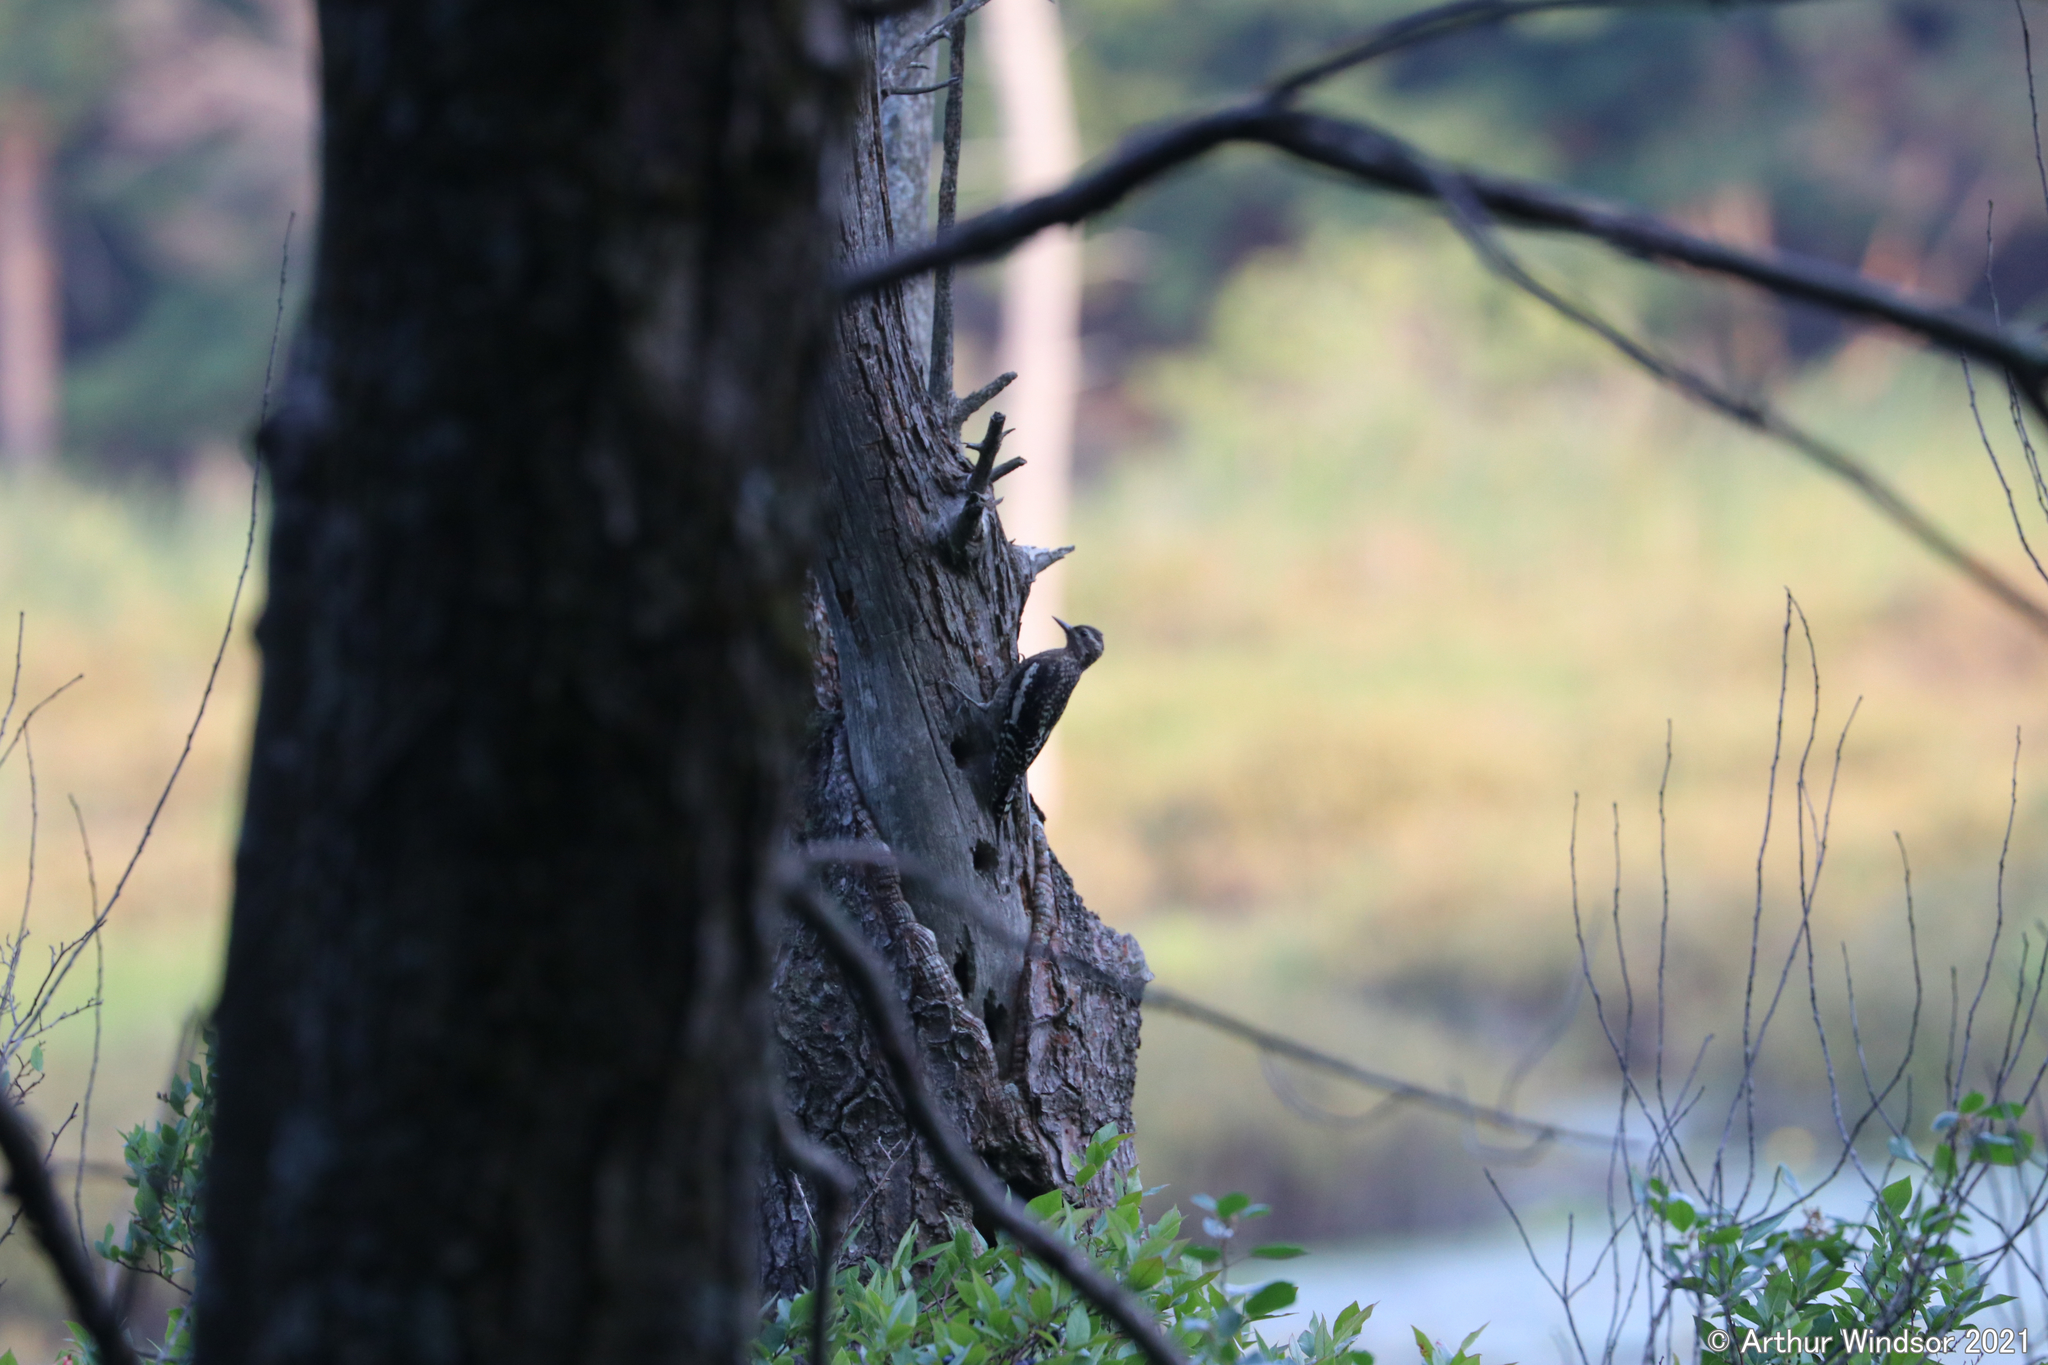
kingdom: Animalia
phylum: Chordata
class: Aves
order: Piciformes
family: Picidae
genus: Sphyrapicus
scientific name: Sphyrapicus varius
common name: Yellow-bellied sapsucker
